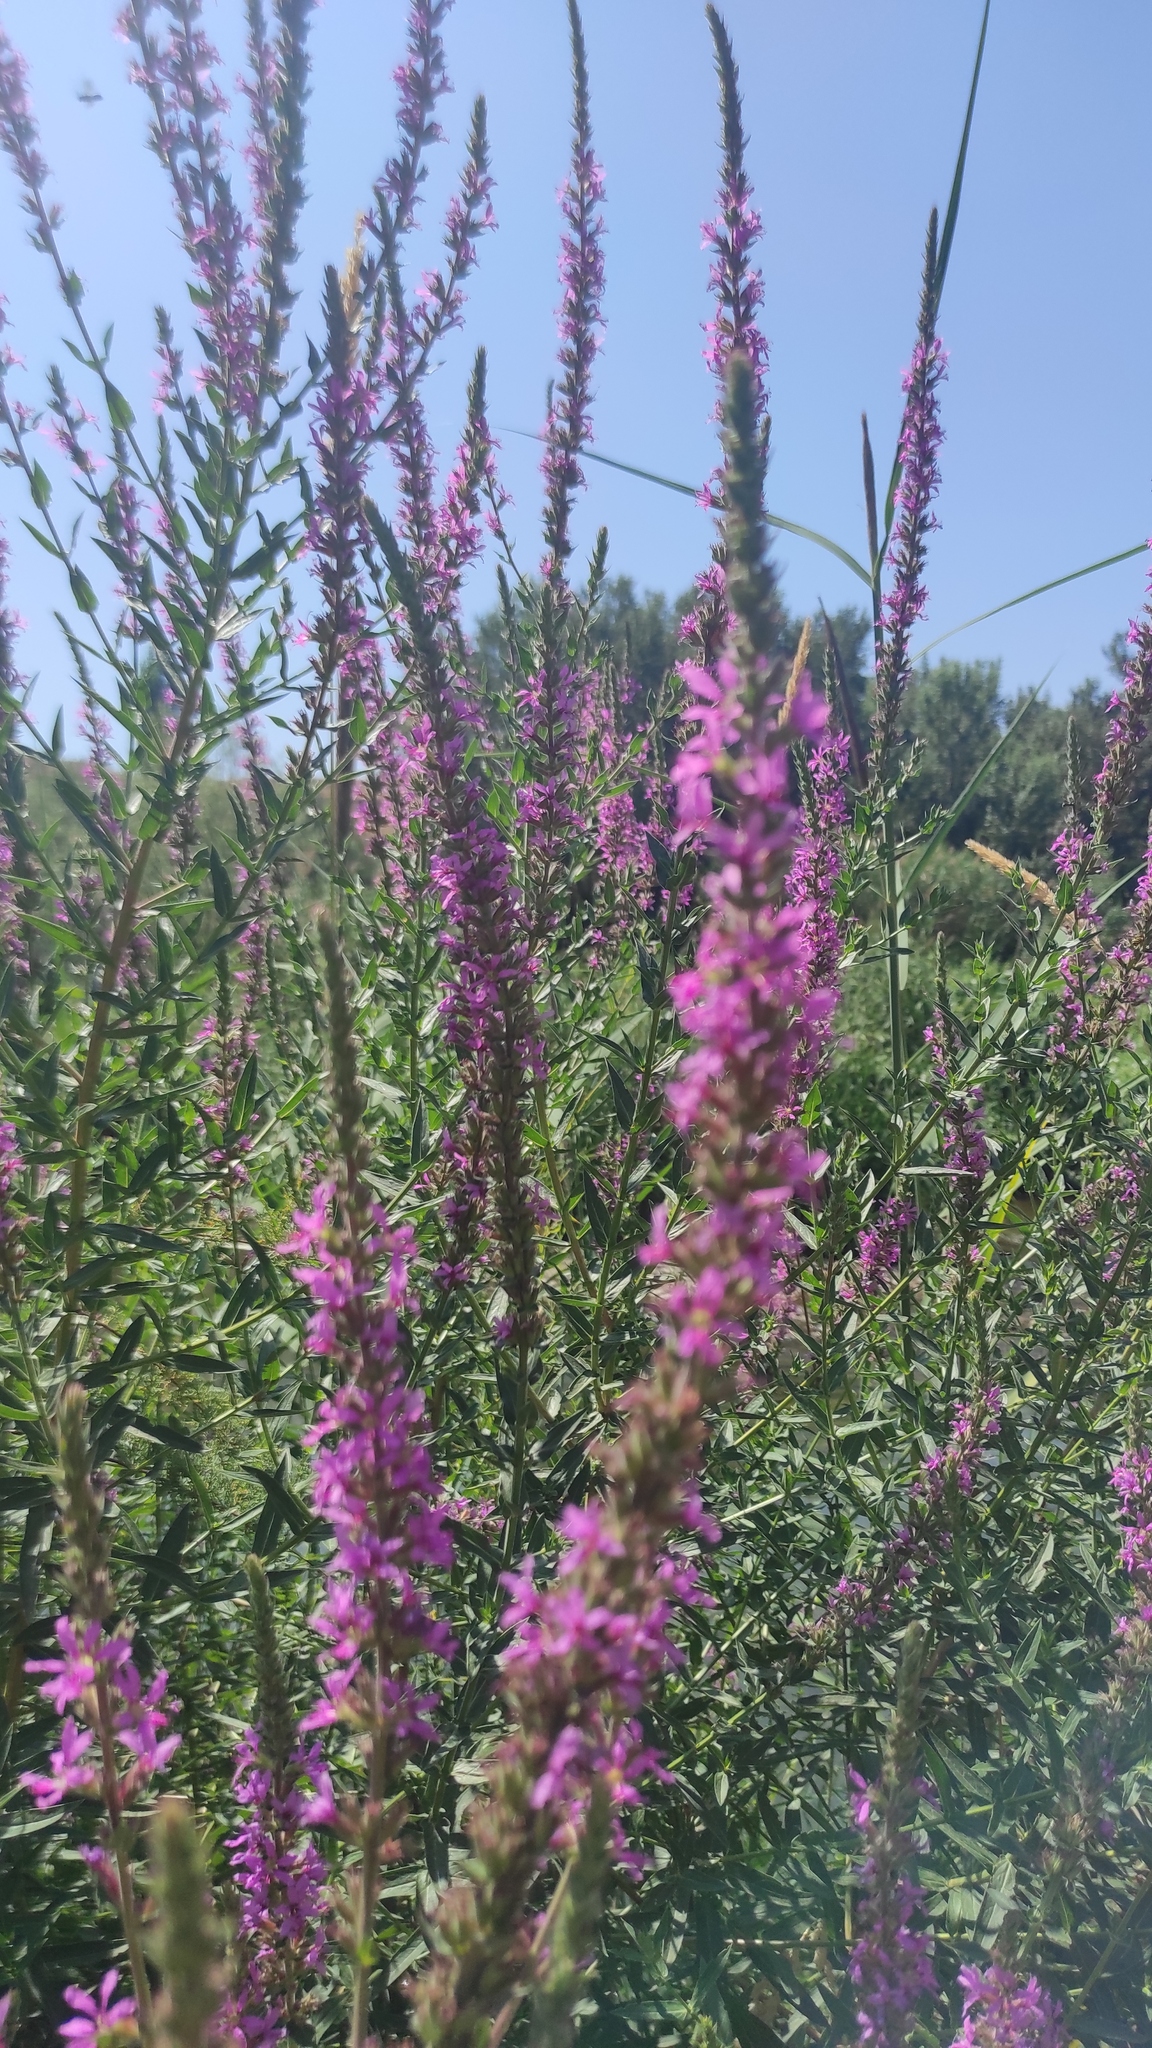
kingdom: Plantae
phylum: Tracheophyta
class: Magnoliopsida
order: Myrtales
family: Lythraceae
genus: Lythrum
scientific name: Lythrum salicaria
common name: Purple loosestrife
